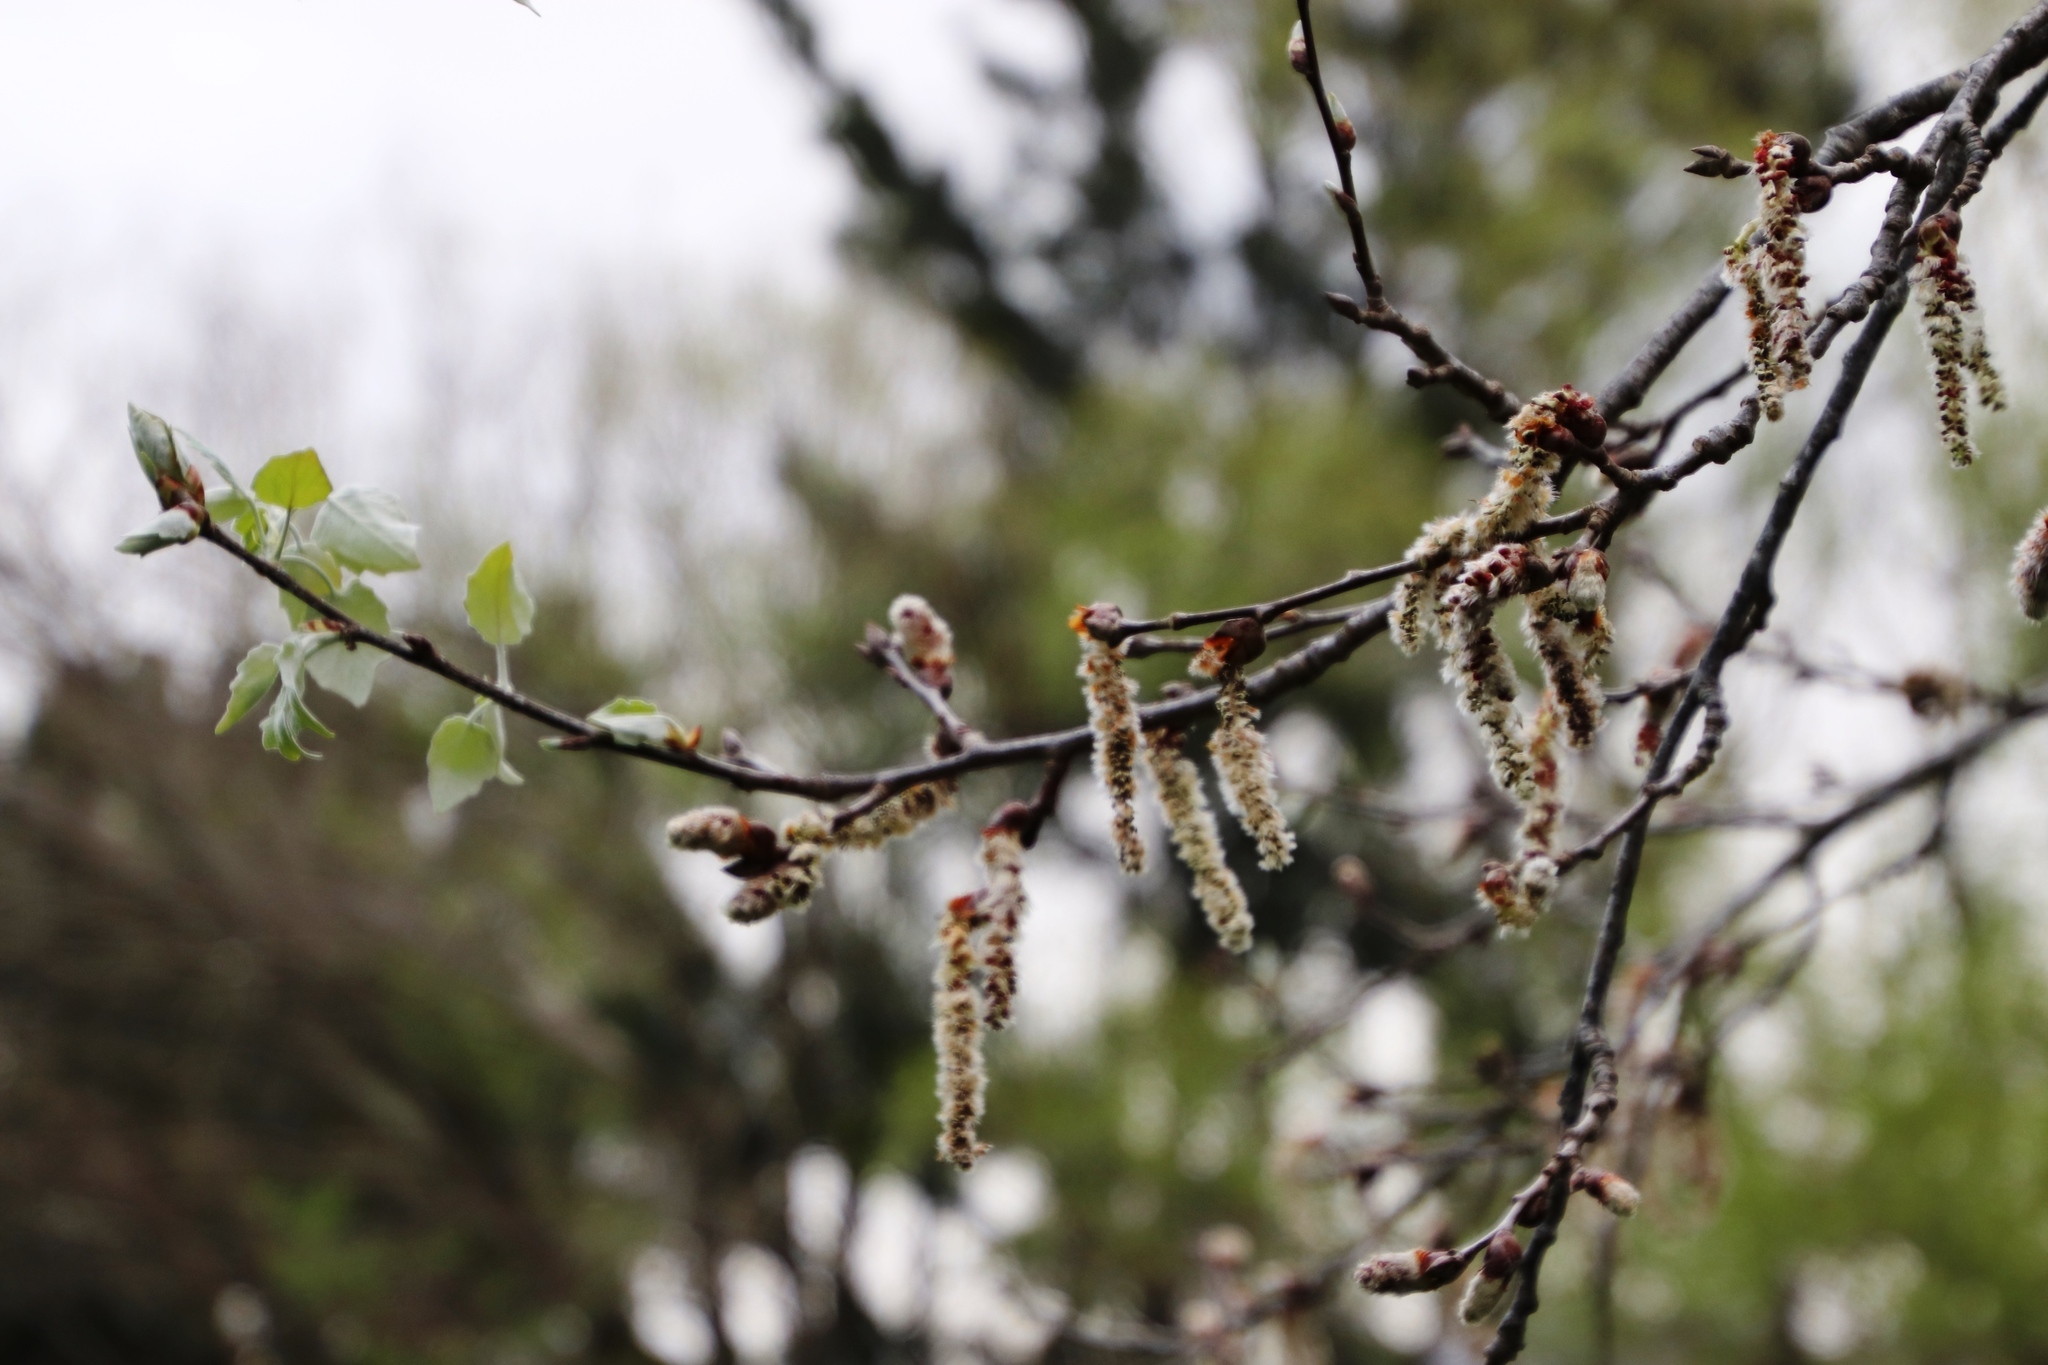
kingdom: Plantae
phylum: Tracheophyta
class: Magnoliopsida
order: Malpighiales
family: Salicaceae
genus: Populus
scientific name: Populus canescens
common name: Gray poplar
